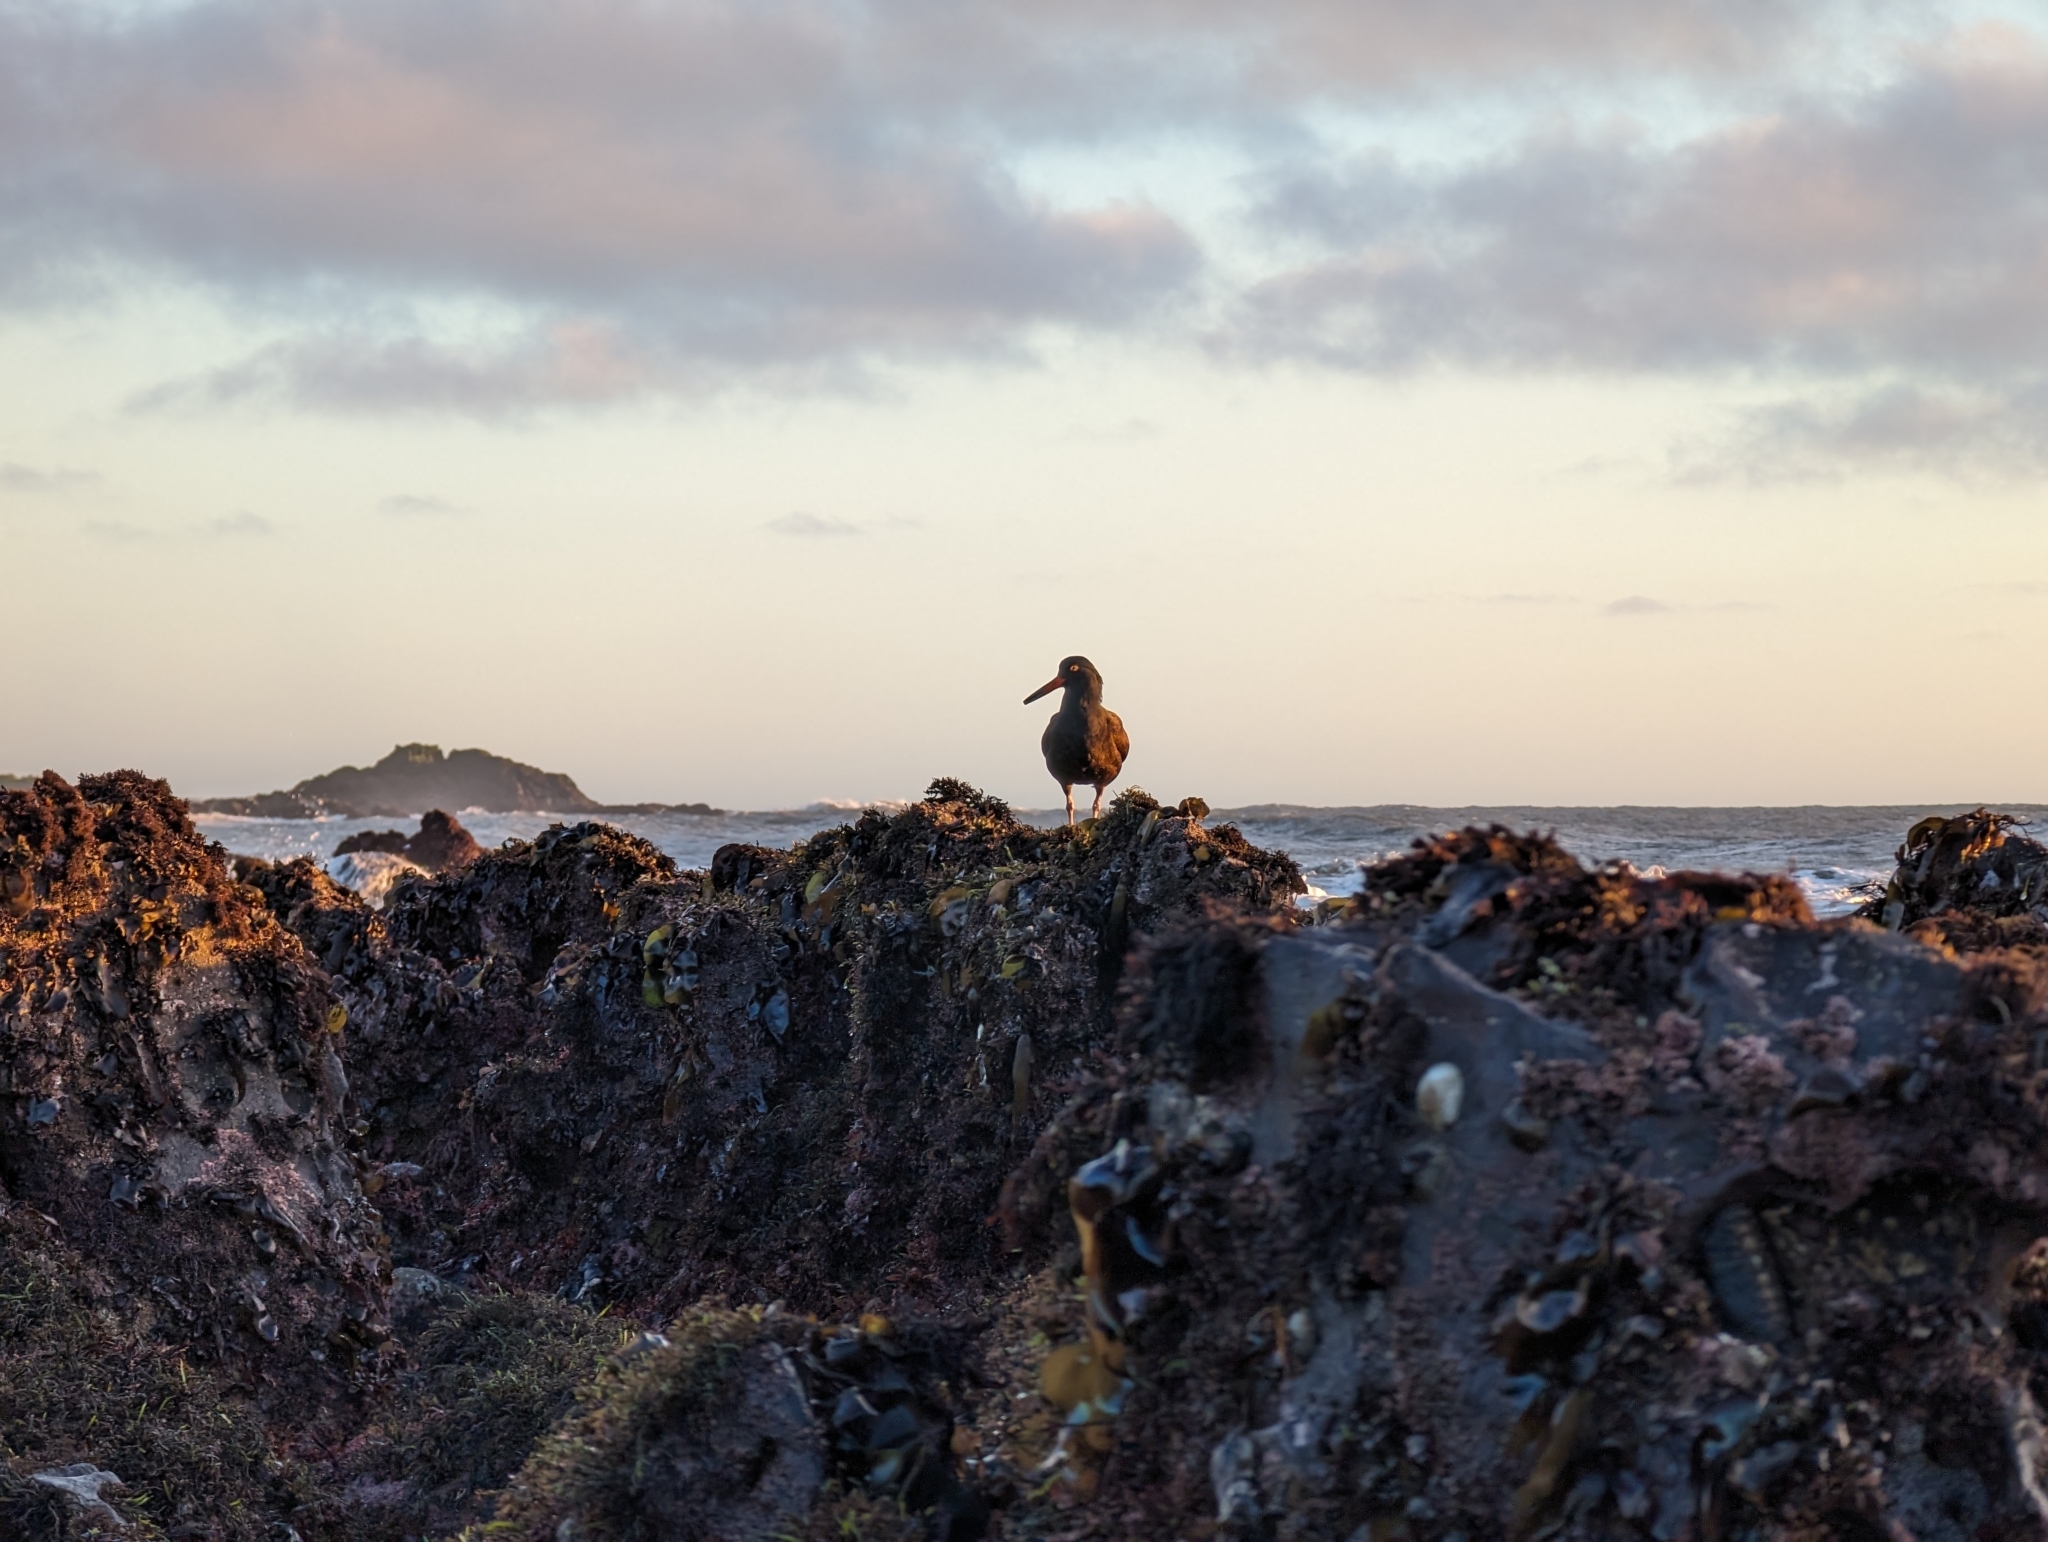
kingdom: Animalia
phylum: Chordata
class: Aves
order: Charadriiformes
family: Haematopodidae
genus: Haematopus
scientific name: Haematopus bachmani
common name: Black oystercatcher
